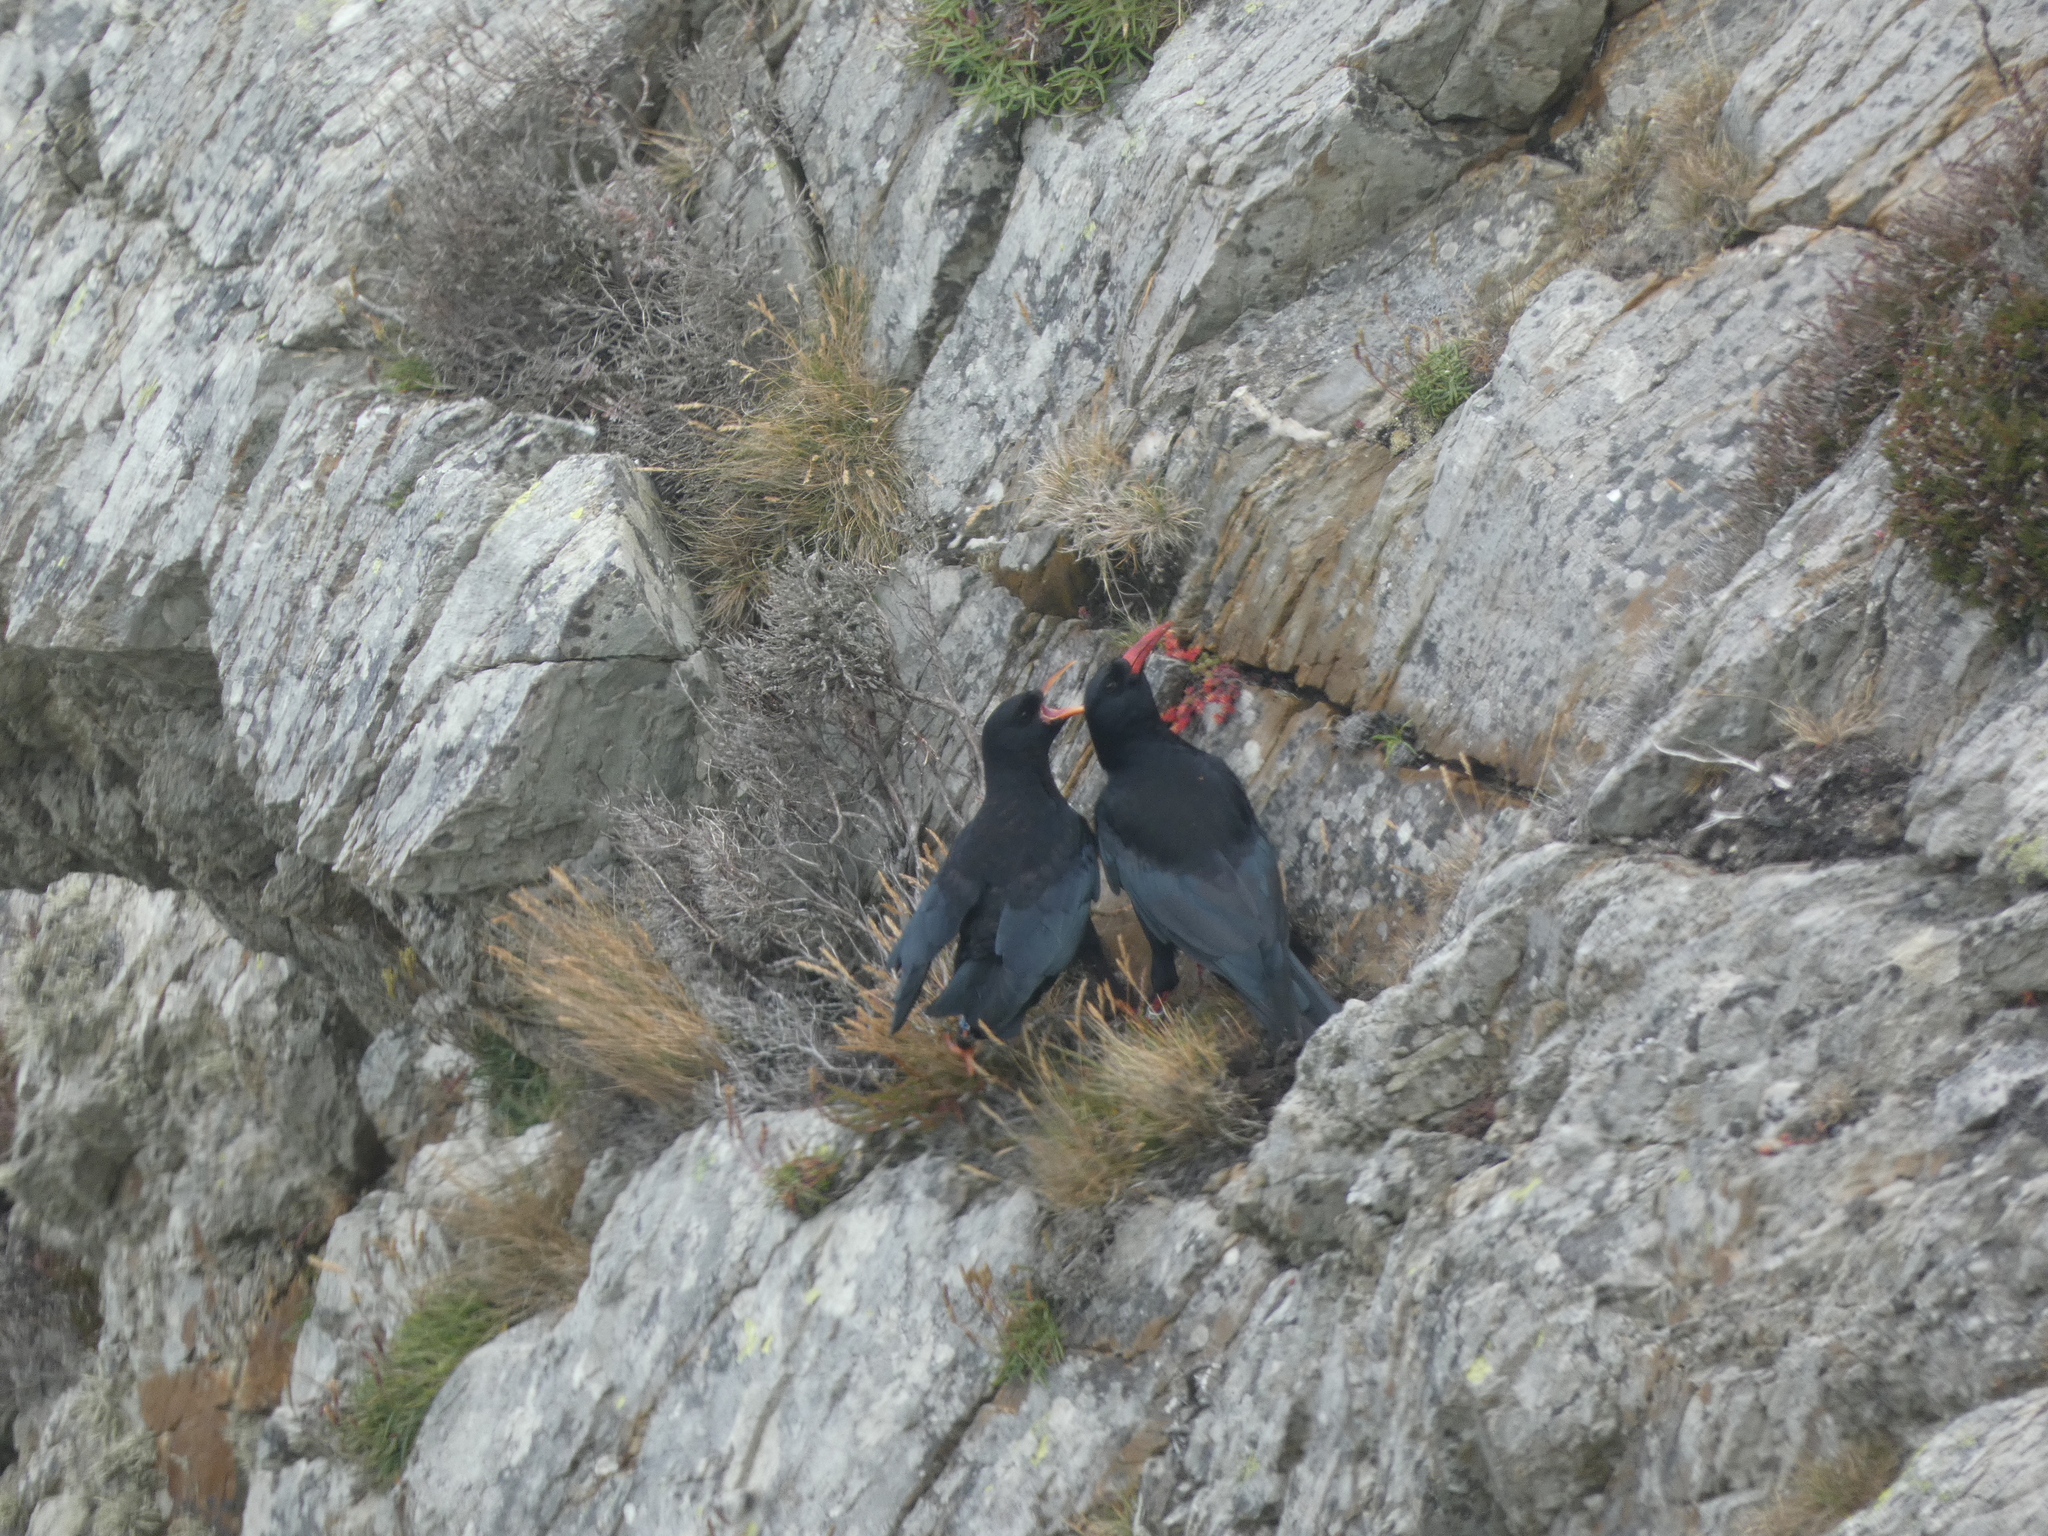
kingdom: Animalia
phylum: Chordata
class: Aves
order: Passeriformes
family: Corvidae
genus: Pyrrhocorax
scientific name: Pyrrhocorax pyrrhocorax
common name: Red-billed chough
